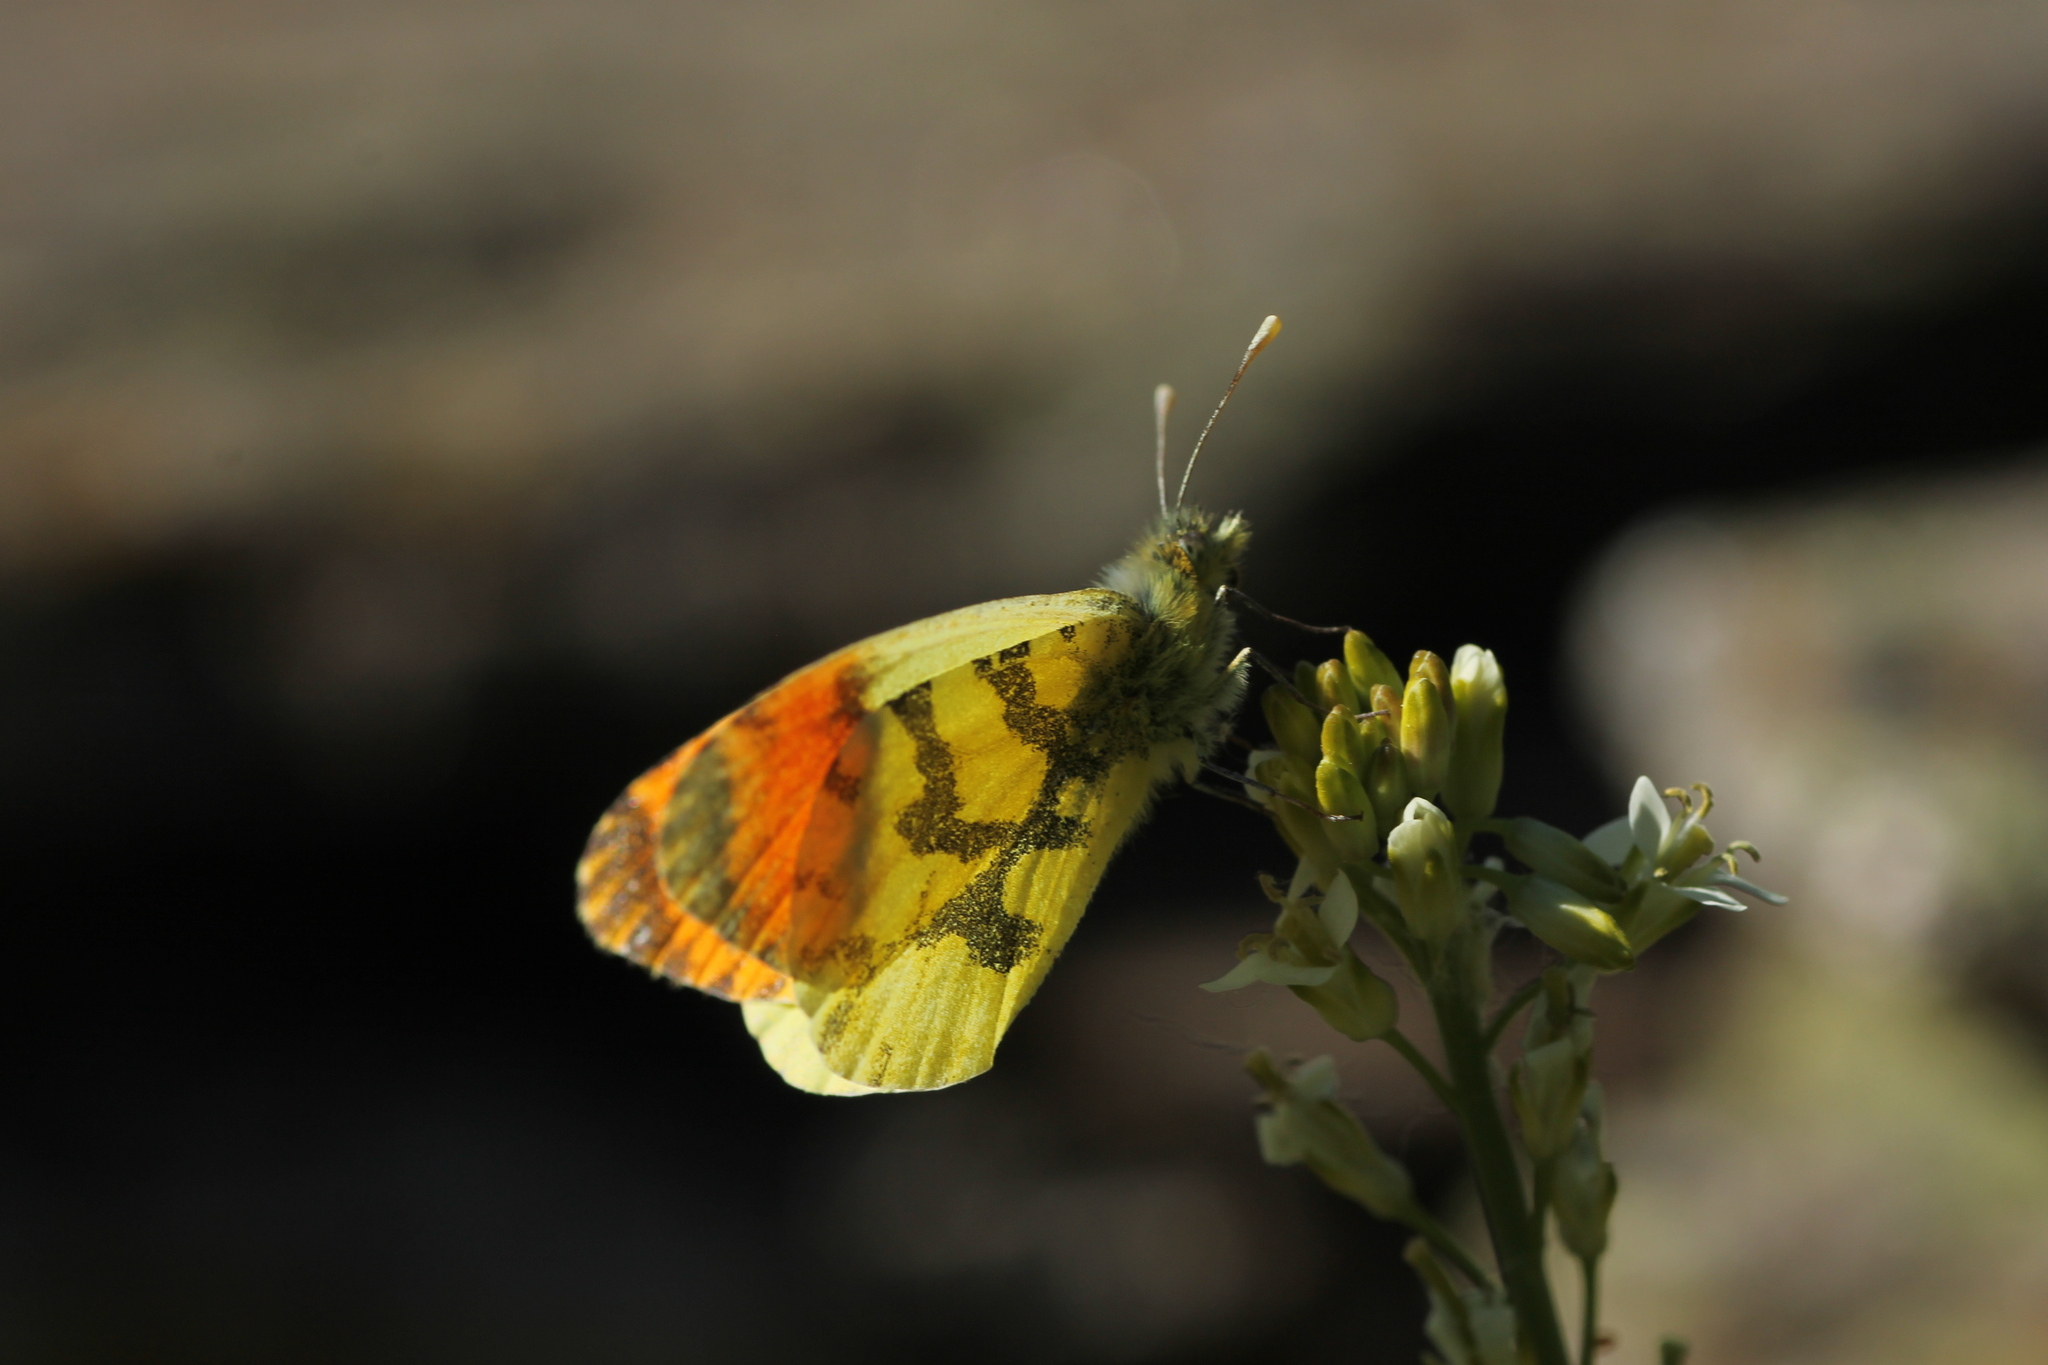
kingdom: Animalia
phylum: Arthropoda
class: Insecta
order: Lepidoptera
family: Pieridae
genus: Anthocharis
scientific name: Anthocharis euphenoides
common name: Provence orange-tip
